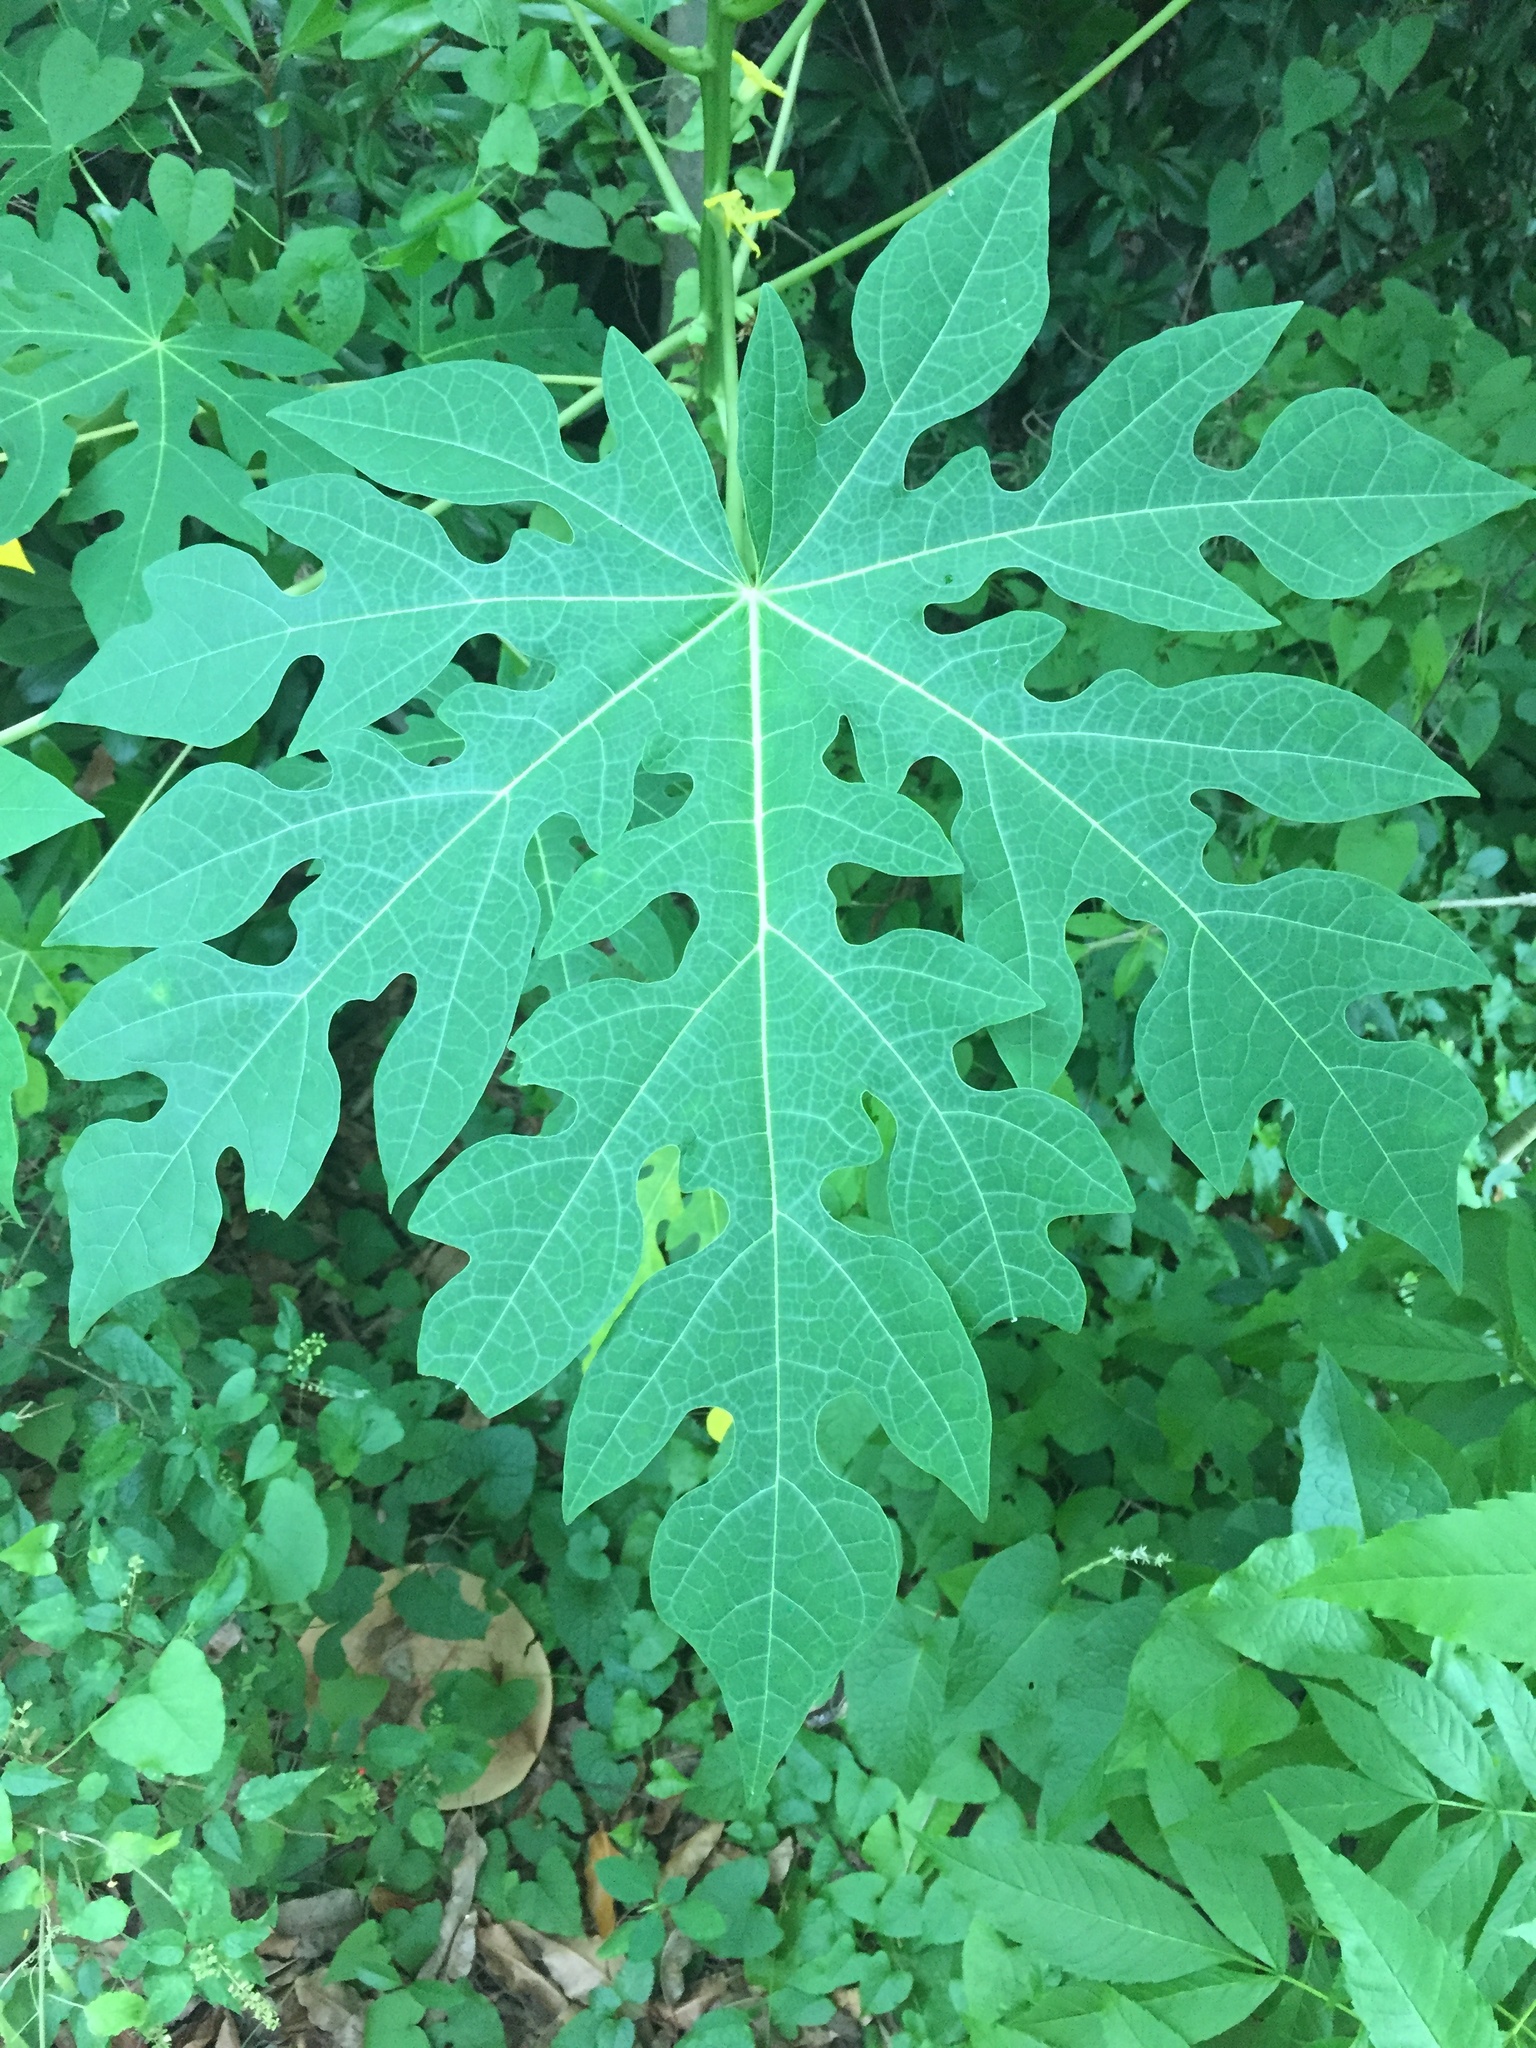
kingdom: Plantae
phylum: Tracheophyta
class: Magnoliopsida
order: Brassicales
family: Caricaceae
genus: Carica
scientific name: Carica papaya
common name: Papaya
